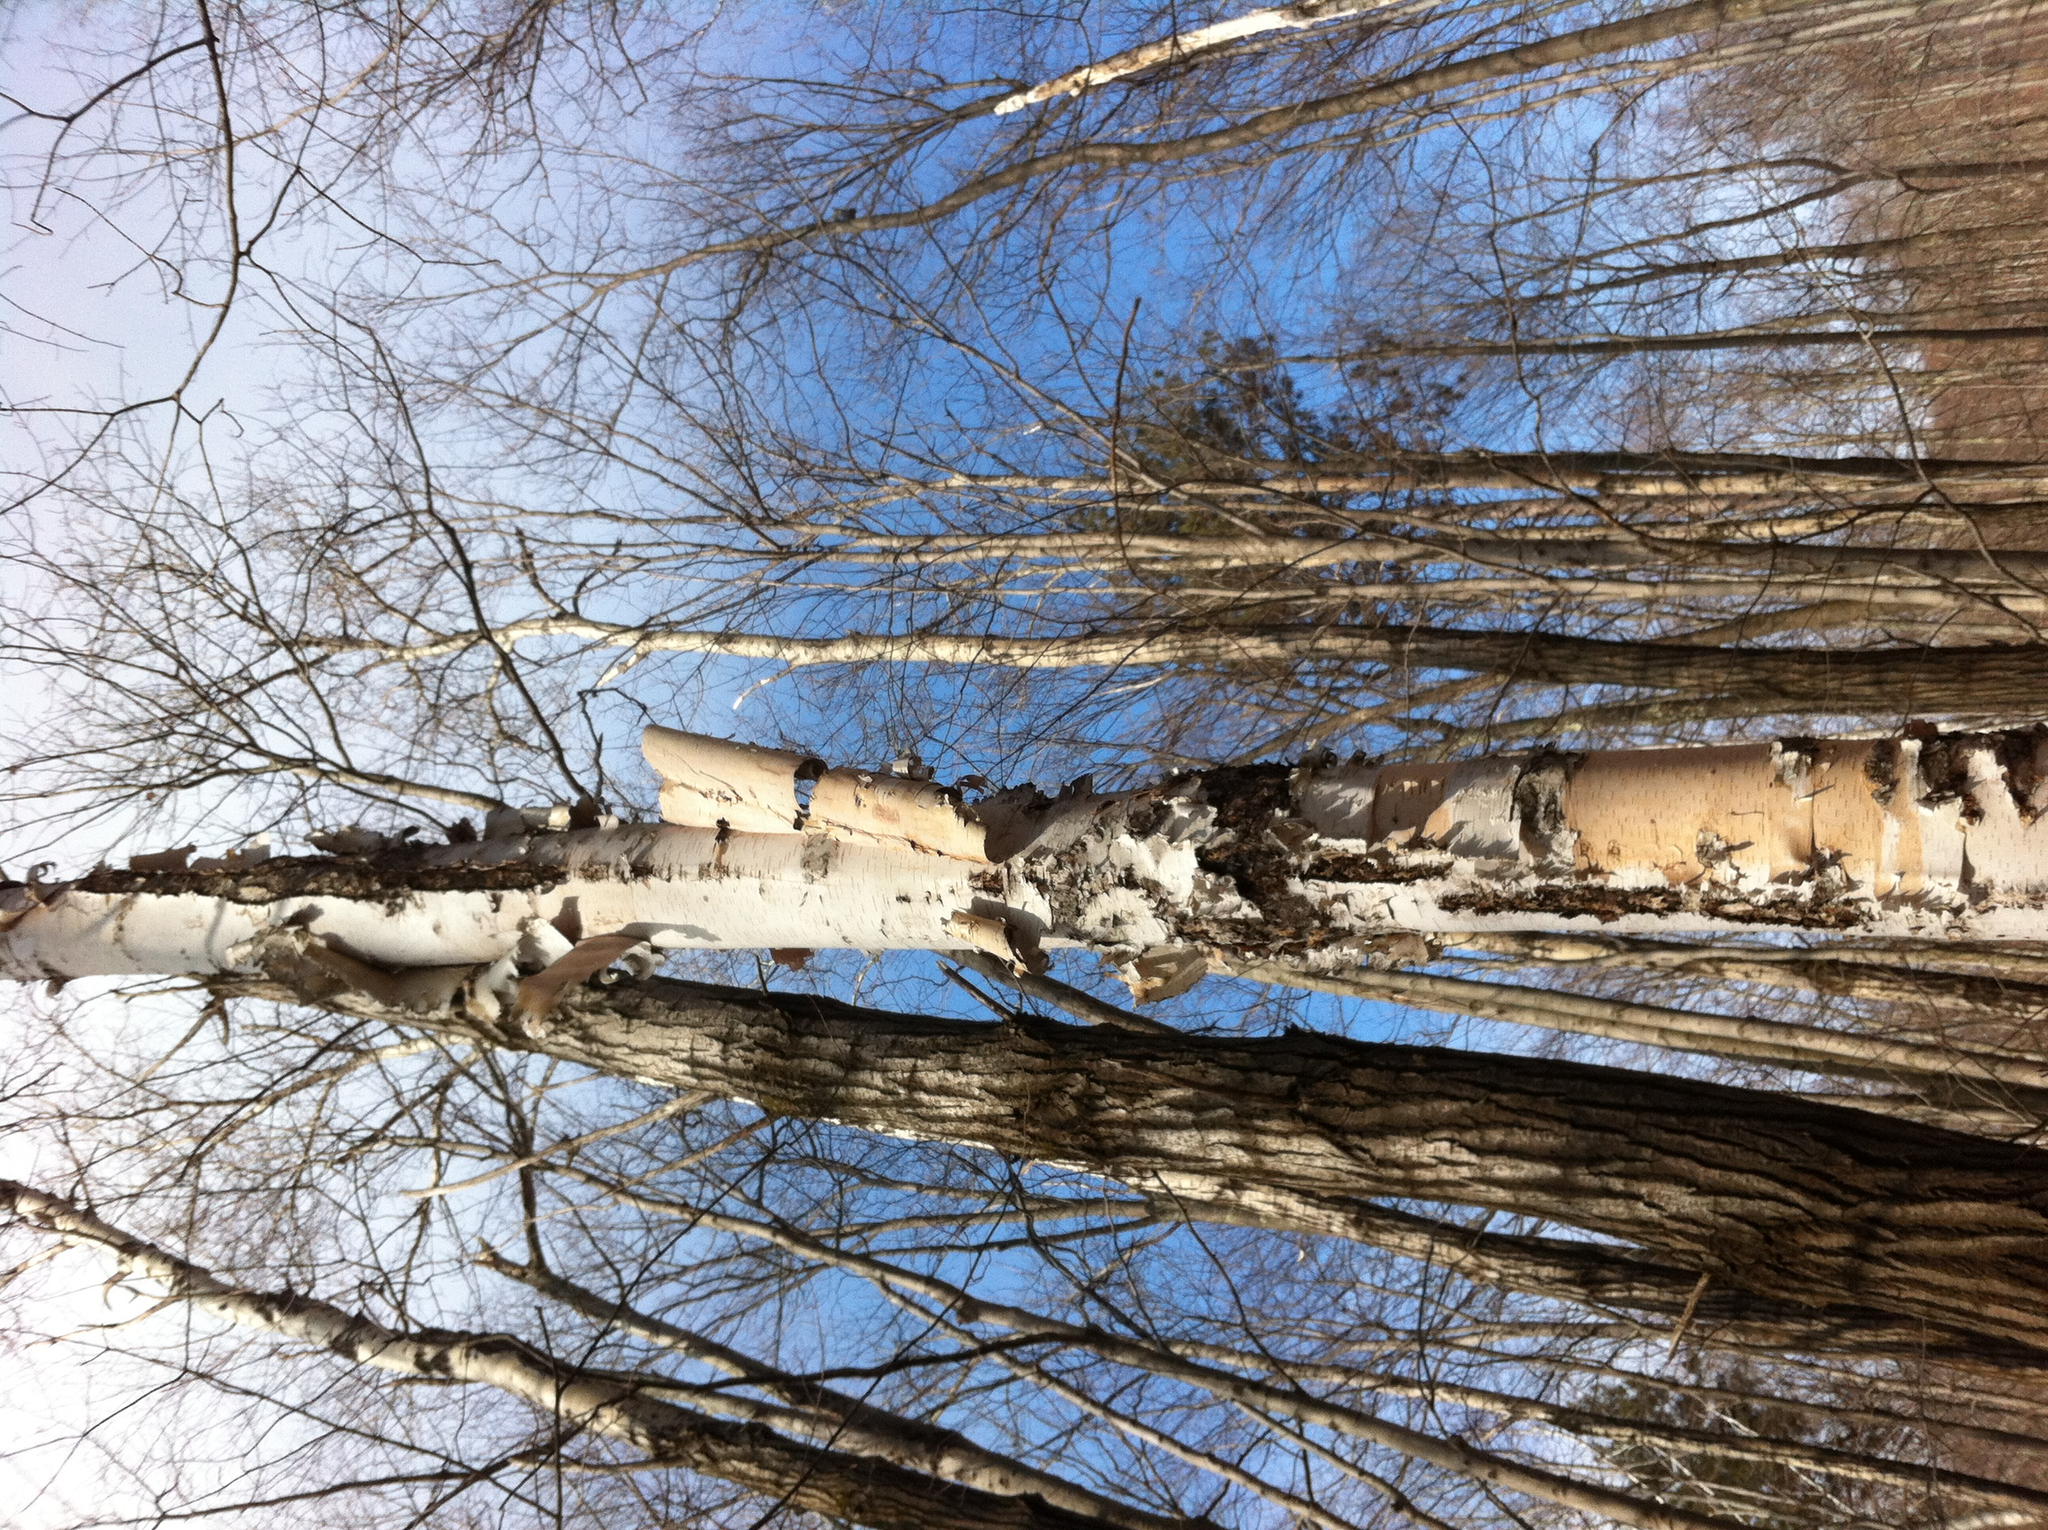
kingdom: Plantae
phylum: Tracheophyta
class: Magnoliopsida
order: Fagales
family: Betulaceae
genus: Betula
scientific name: Betula papyrifera
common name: Paper birch
